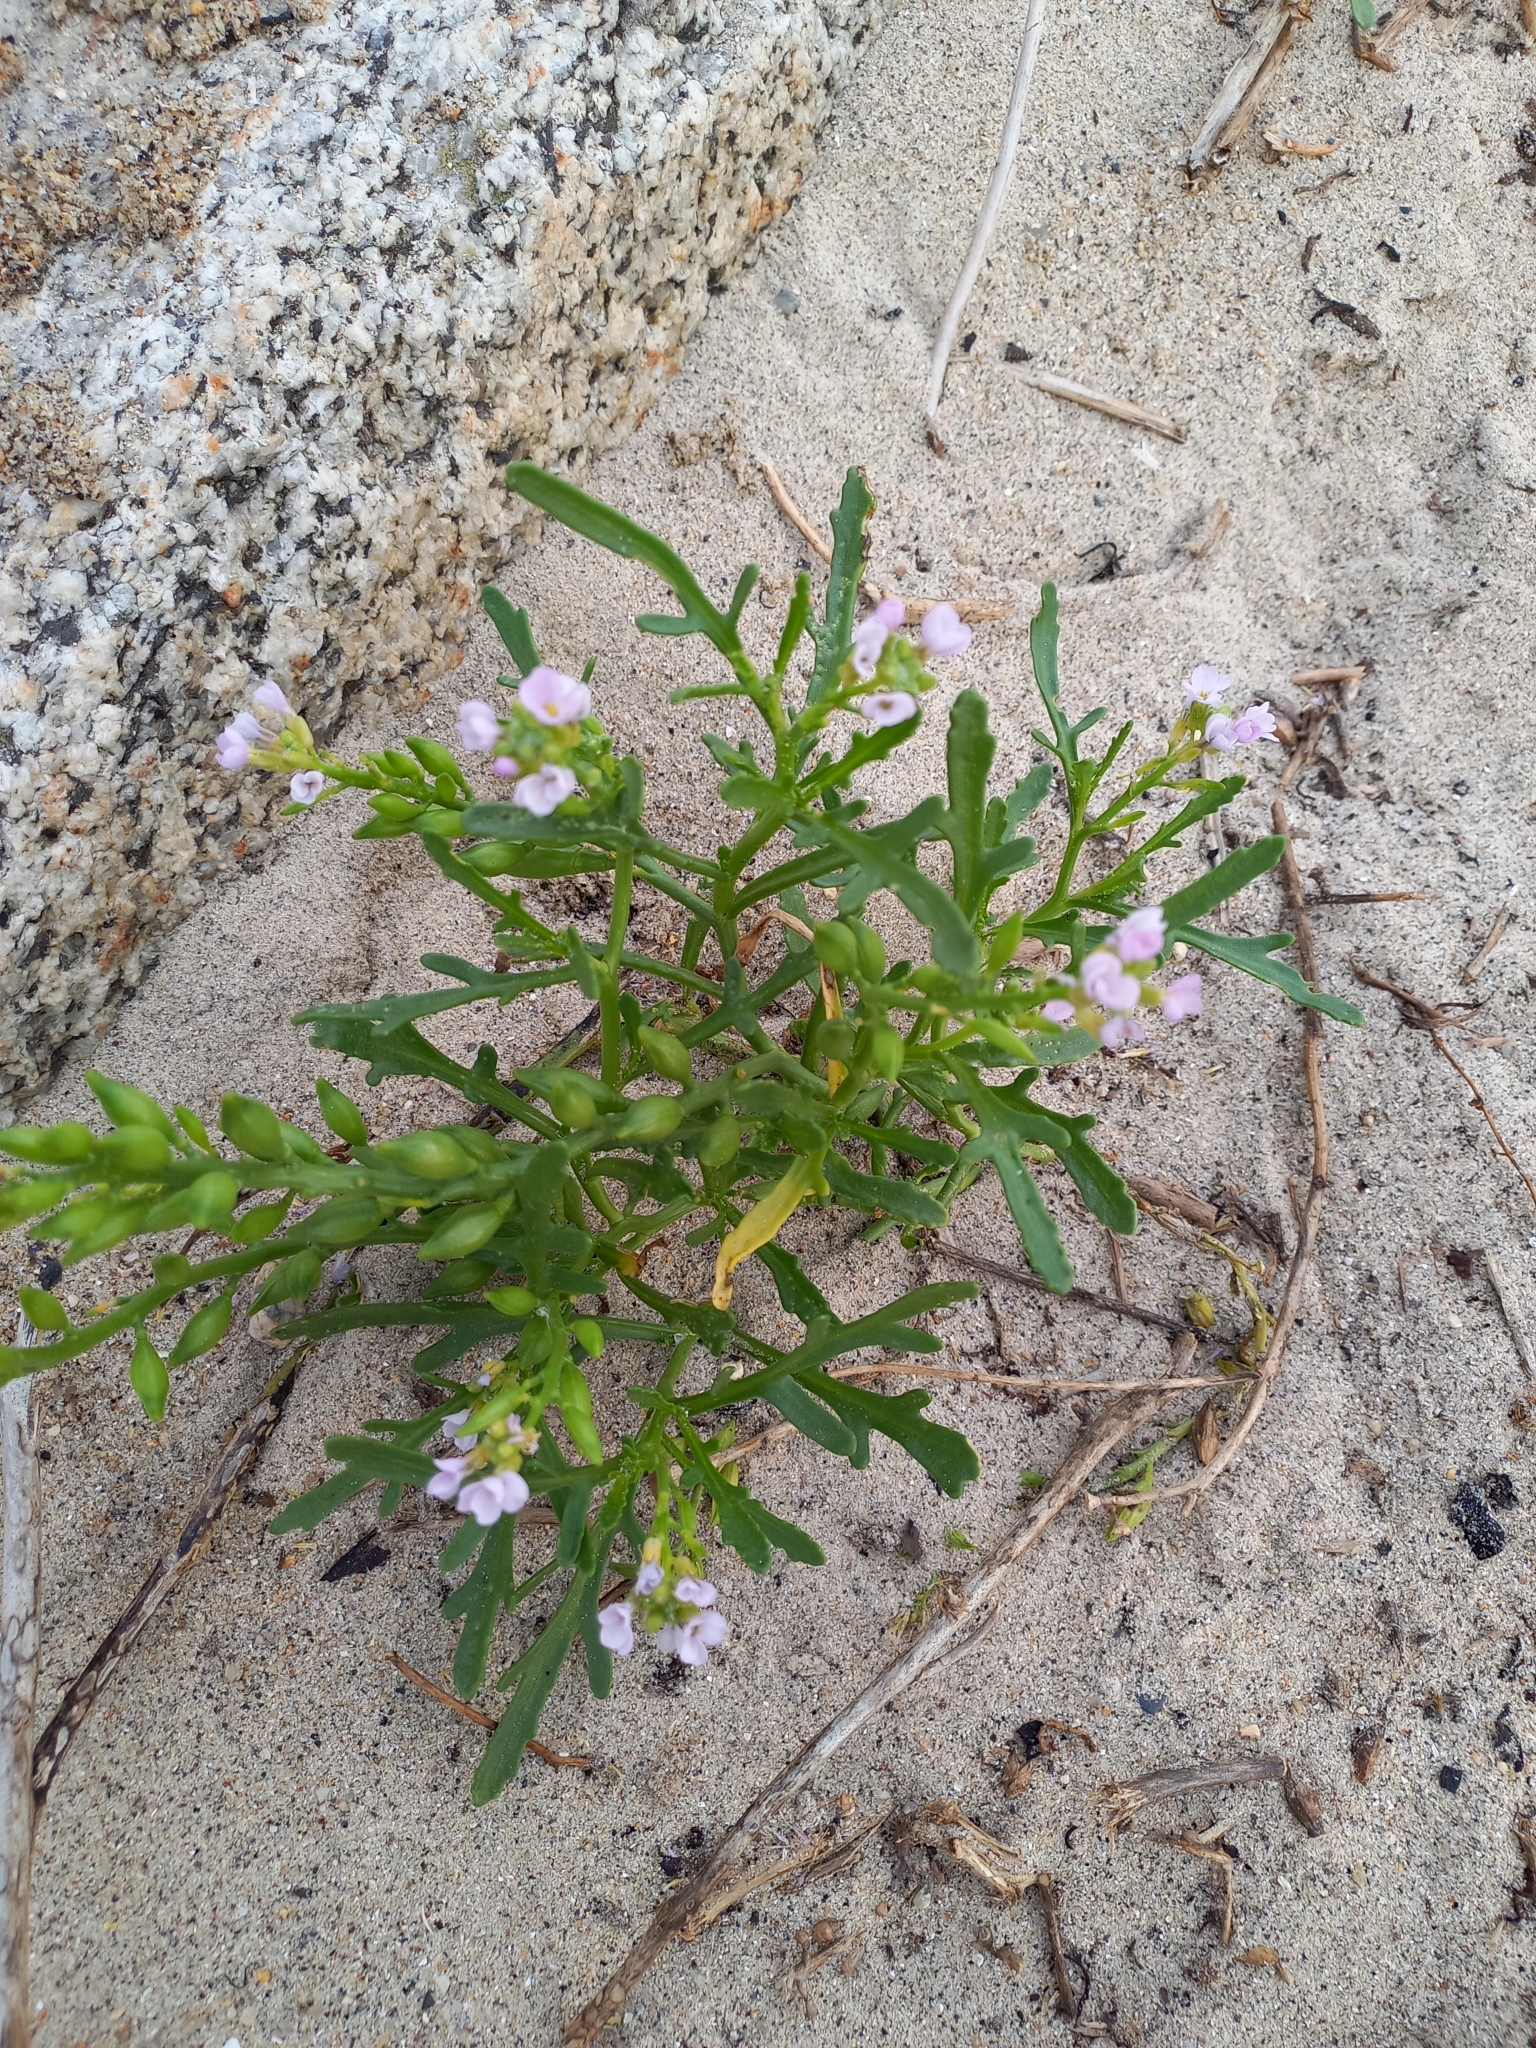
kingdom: Plantae
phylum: Tracheophyta
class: Magnoliopsida
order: Brassicales
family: Brassicaceae
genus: Cakile
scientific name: Cakile maritima
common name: Sea rocket
